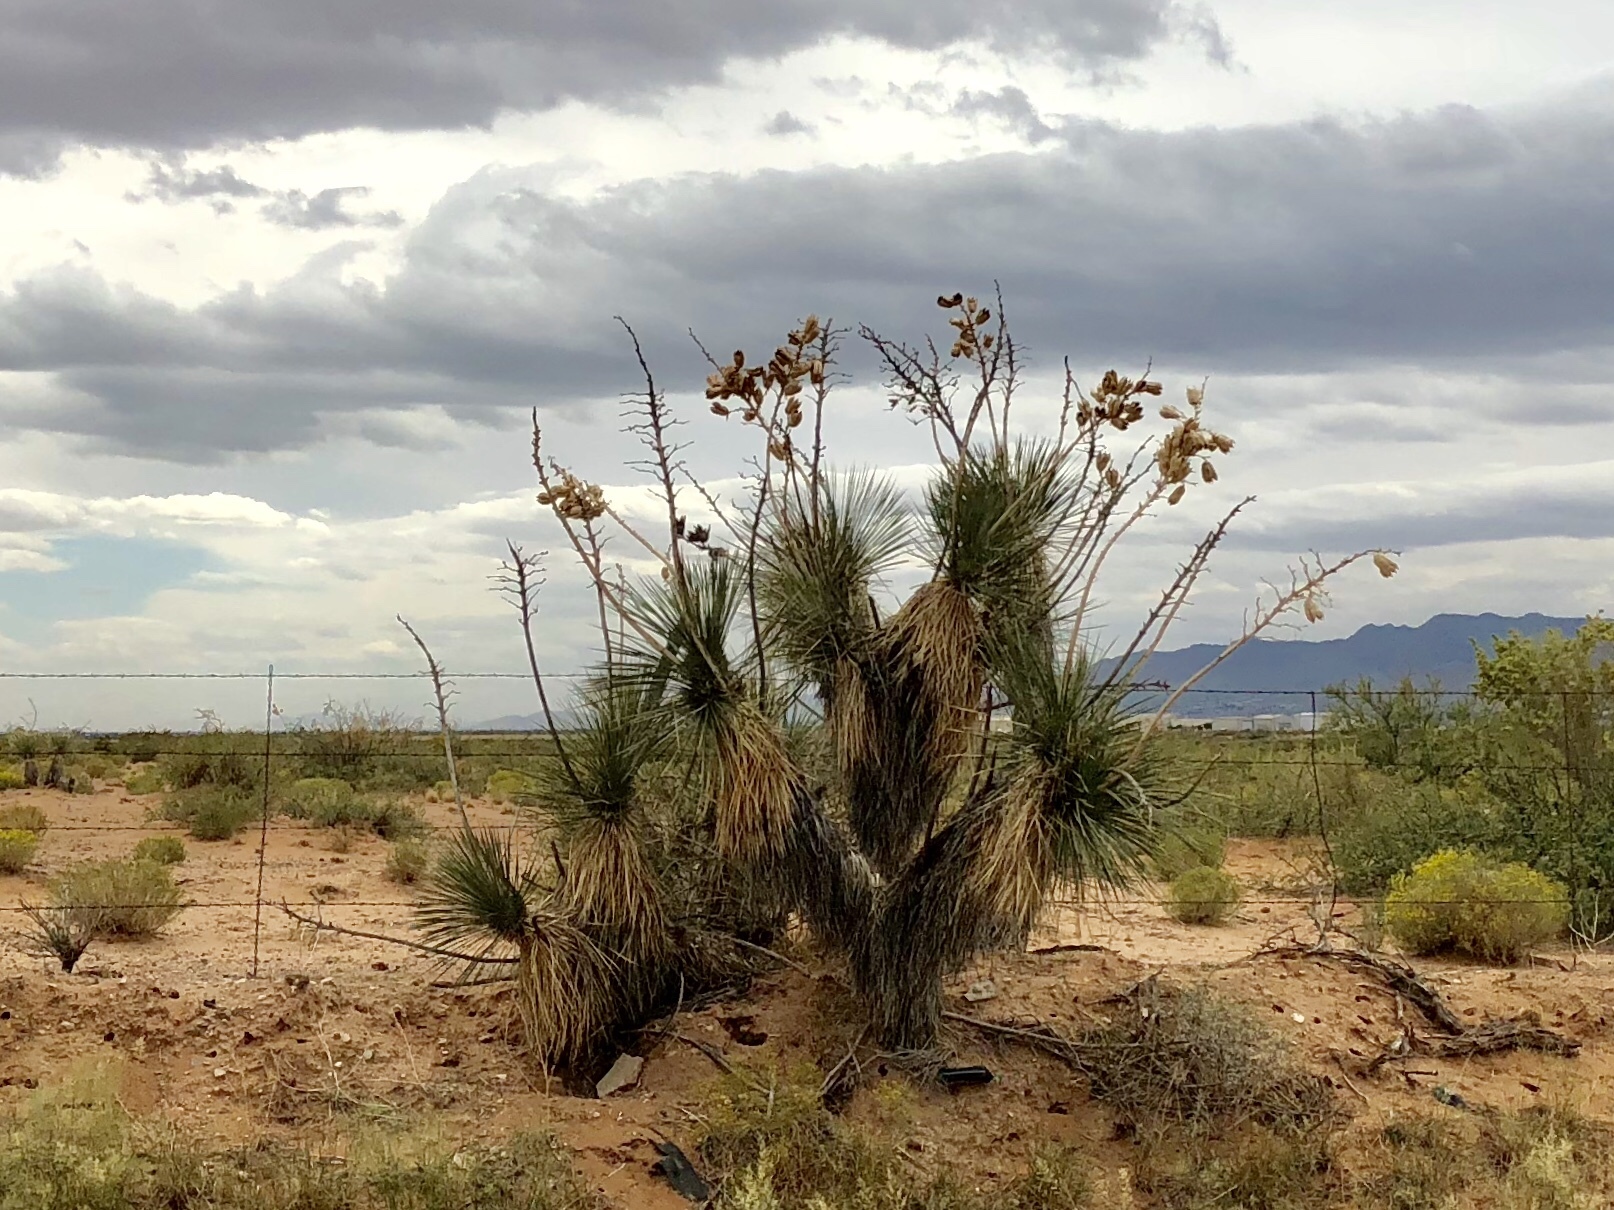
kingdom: Plantae
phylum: Tracheophyta
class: Liliopsida
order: Asparagales
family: Asparagaceae
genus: Yucca
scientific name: Yucca elata
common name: Palmella
